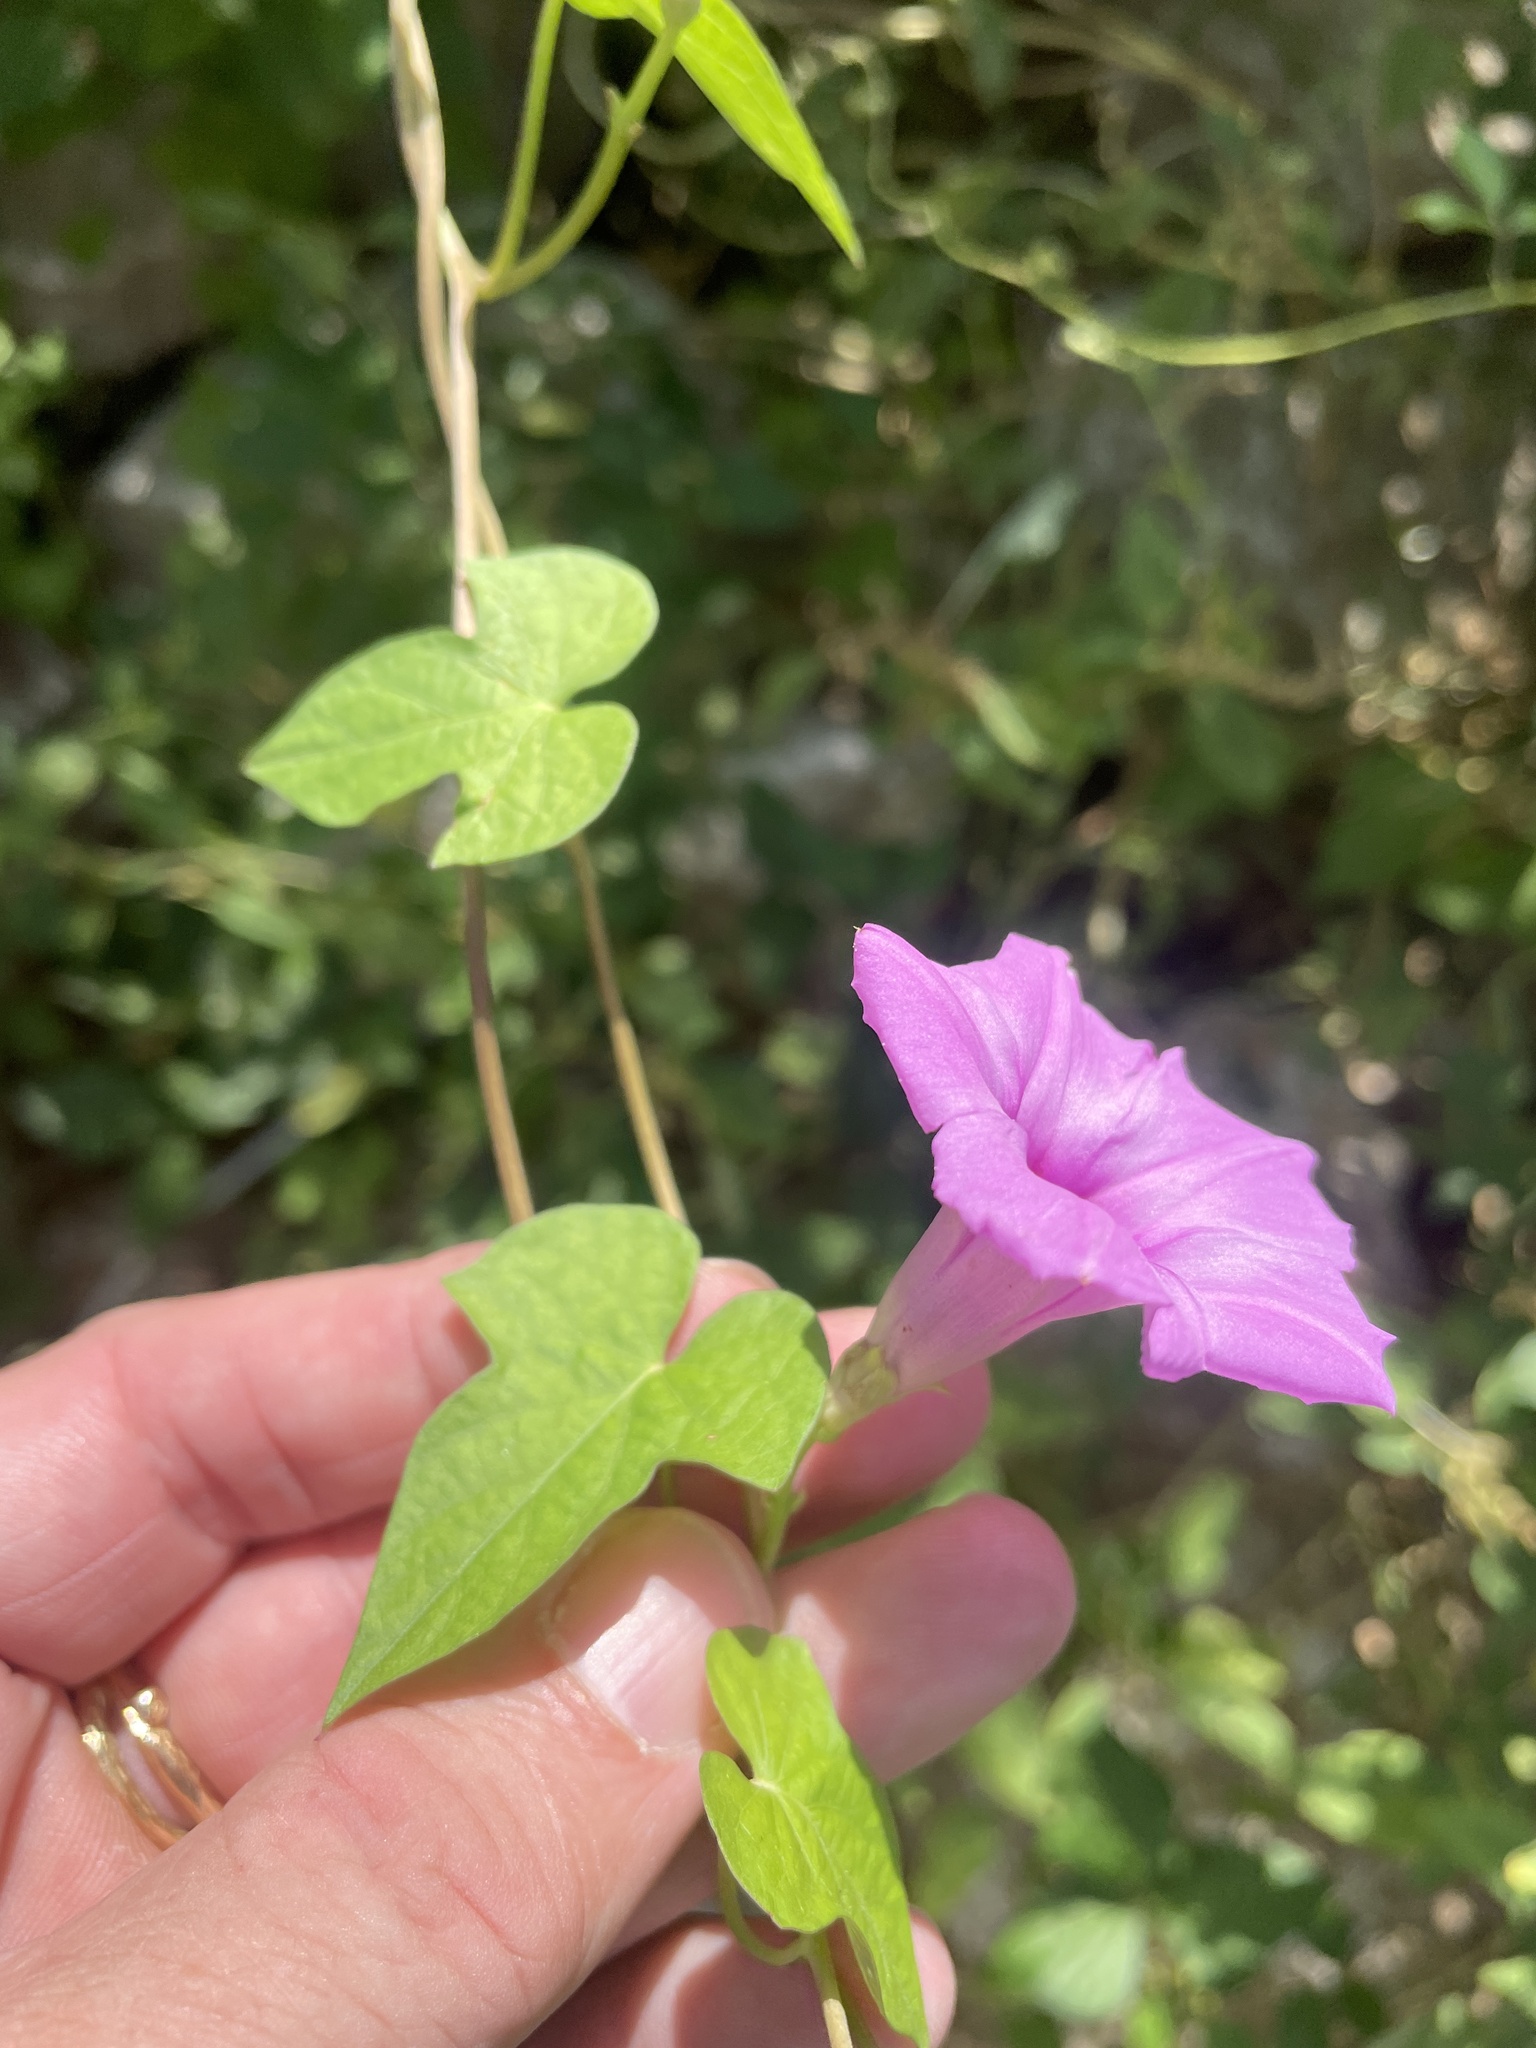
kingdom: Plantae
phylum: Tracheophyta
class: Magnoliopsida
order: Solanales
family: Convolvulaceae
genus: Ipomoea
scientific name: Ipomoea cordatotriloba
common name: Cotton morning glory
